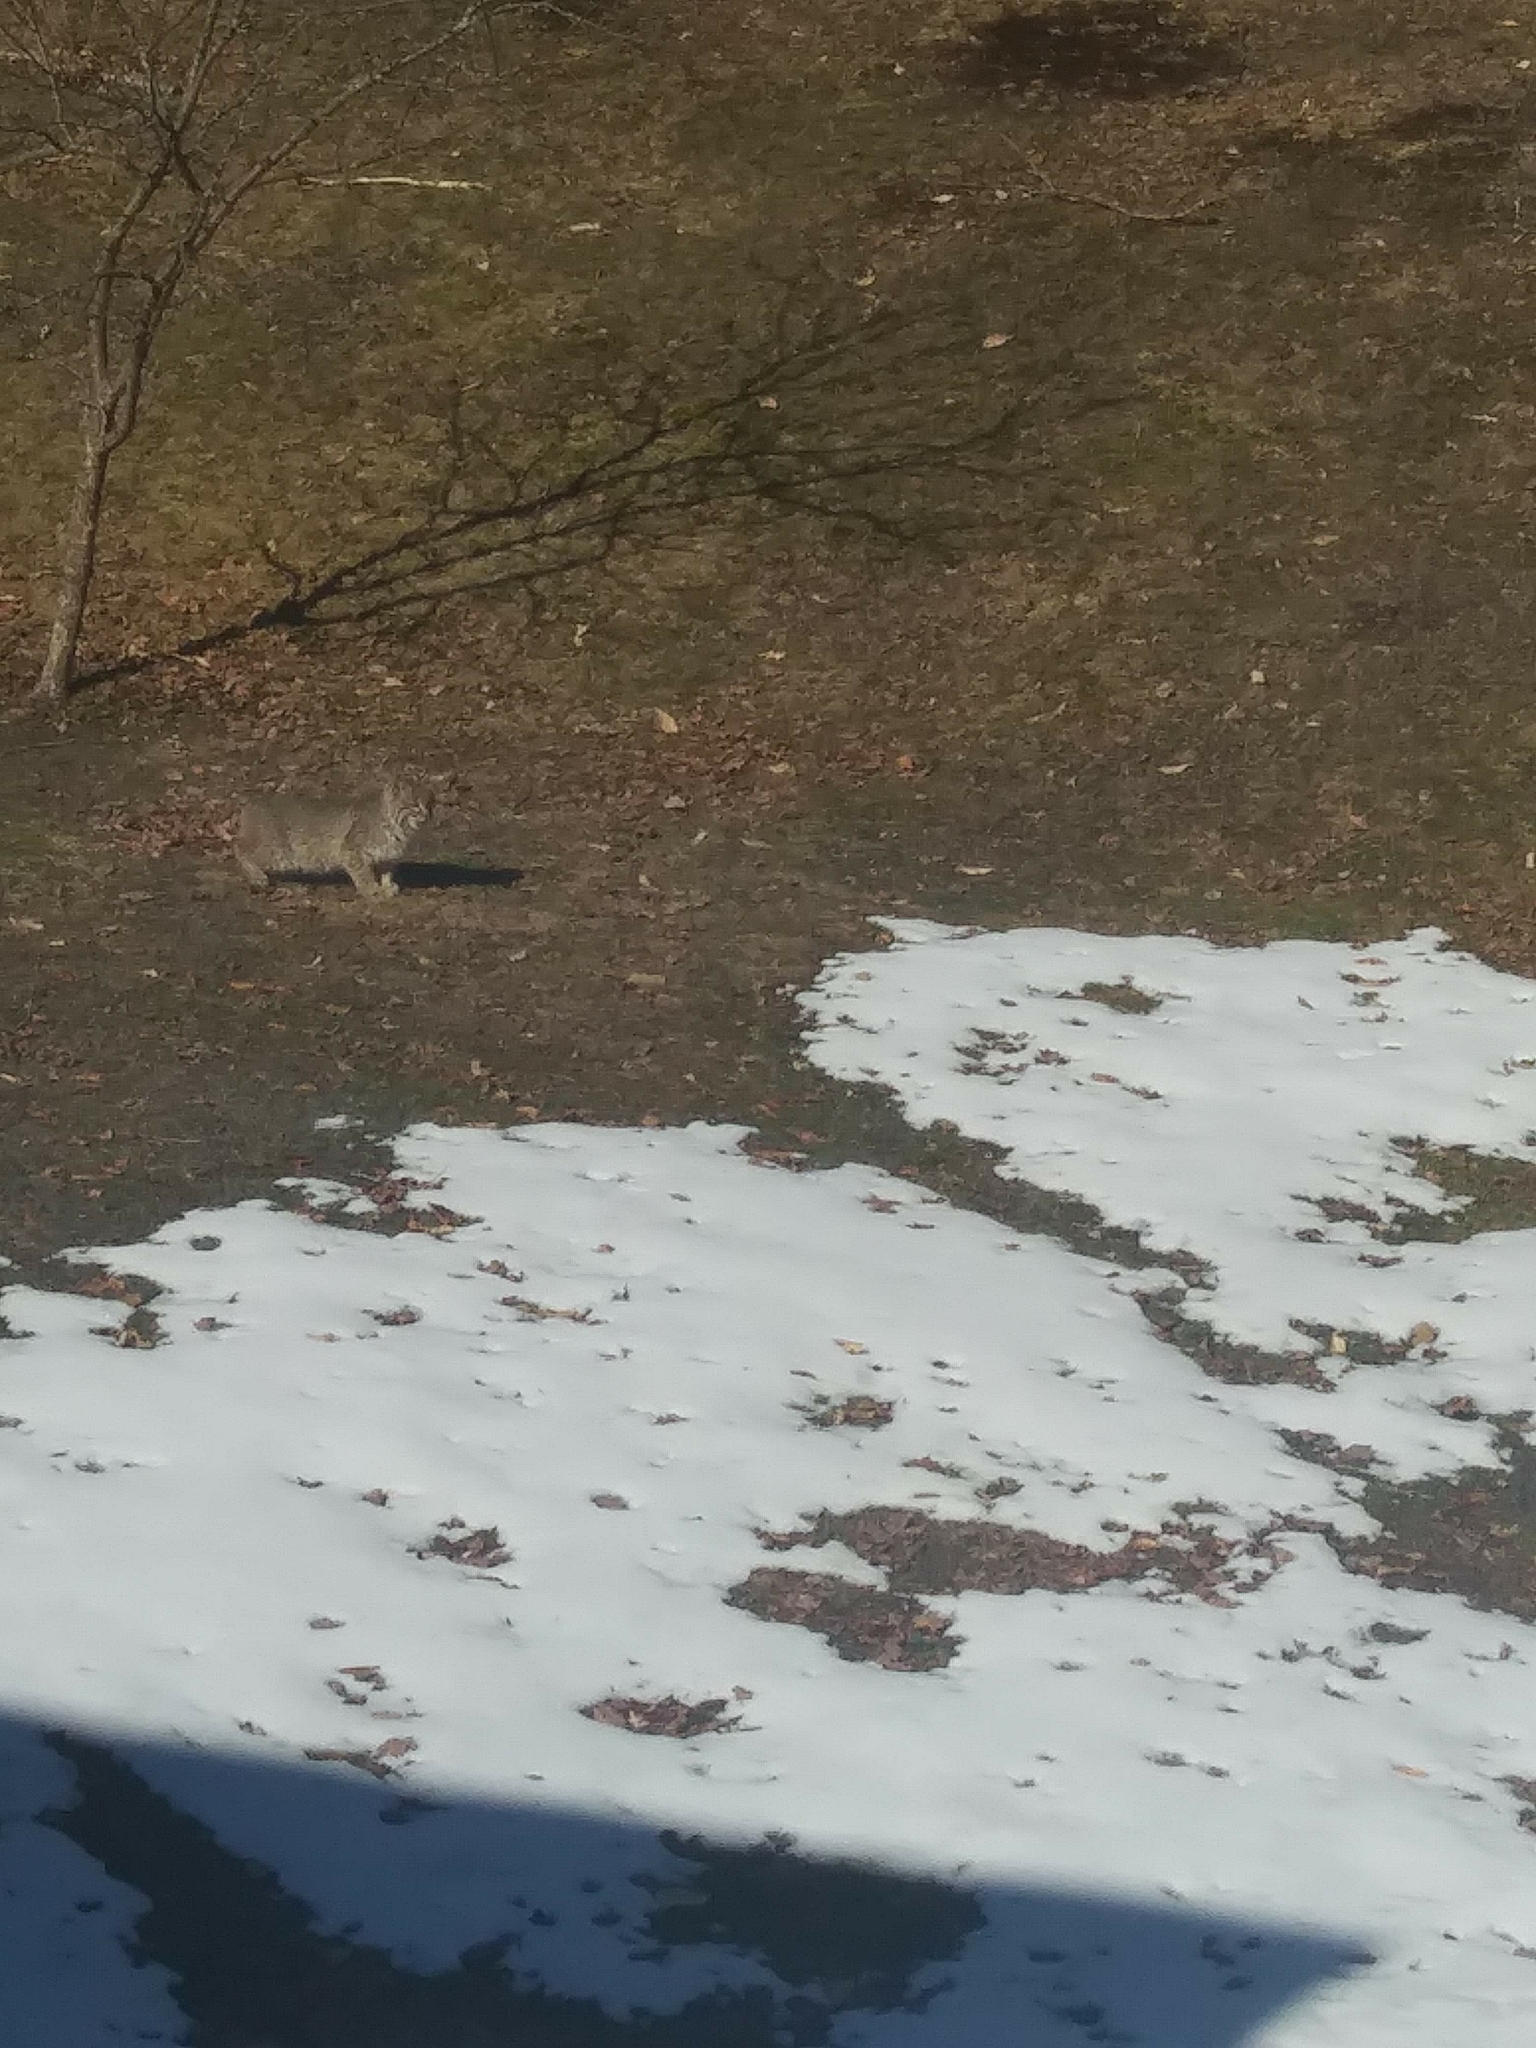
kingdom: Animalia
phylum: Chordata
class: Mammalia
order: Carnivora
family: Felidae
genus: Lynx
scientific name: Lynx rufus
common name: Bobcat
